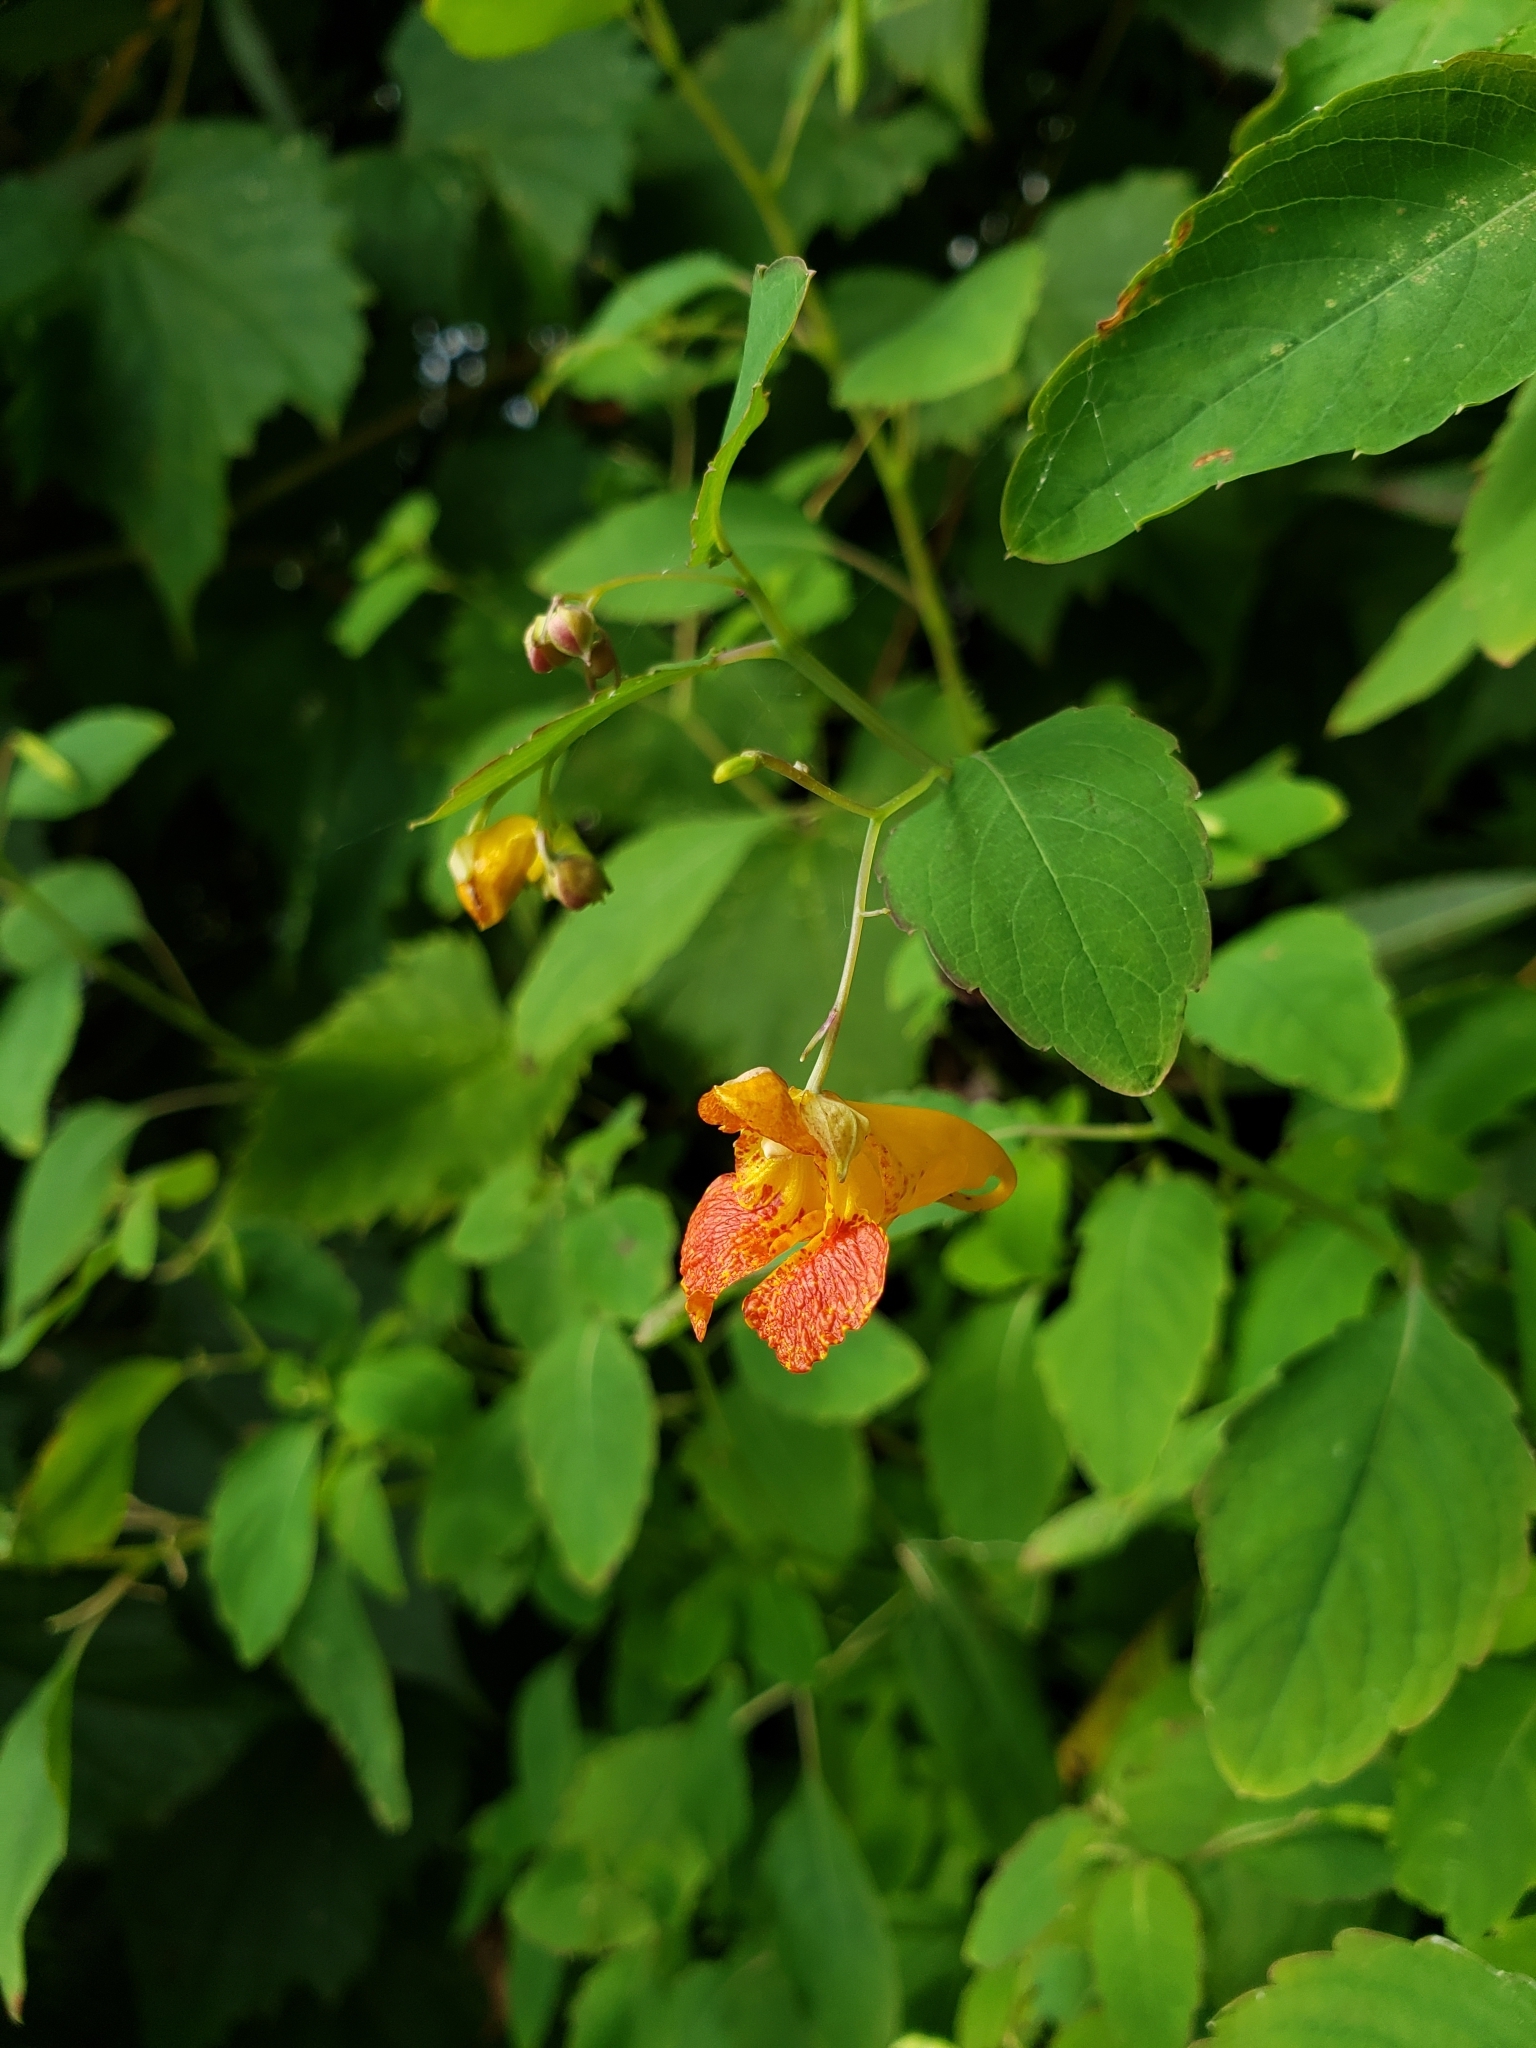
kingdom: Plantae
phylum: Tracheophyta
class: Magnoliopsida
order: Ericales
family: Balsaminaceae
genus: Impatiens
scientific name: Impatiens capensis
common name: Orange balsam
